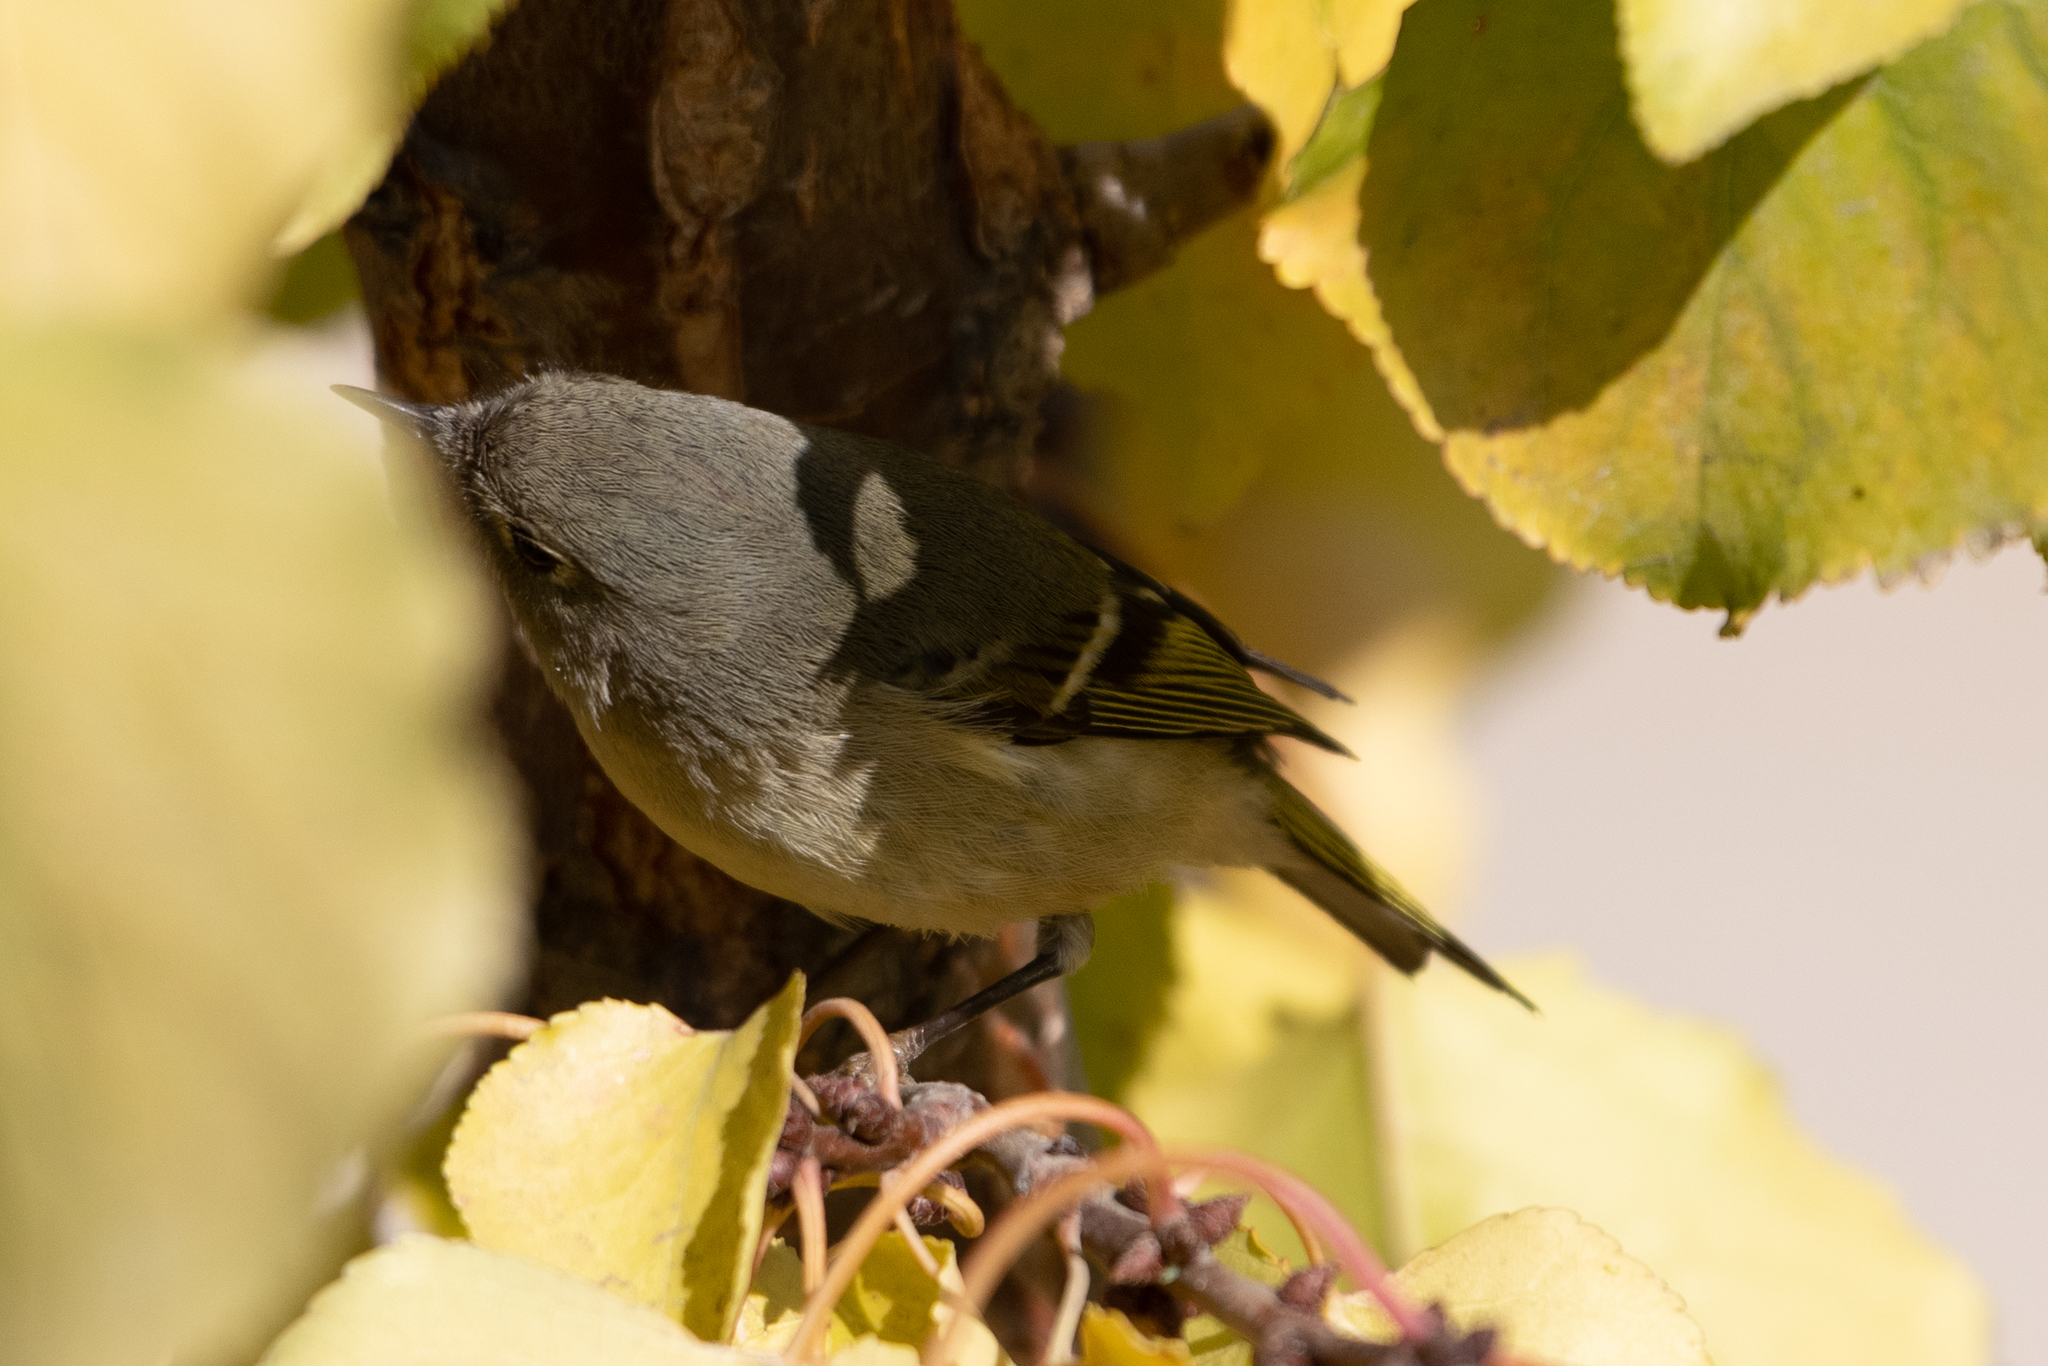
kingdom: Animalia
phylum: Chordata
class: Aves
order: Passeriformes
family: Regulidae
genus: Regulus
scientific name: Regulus calendula
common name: Ruby-crowned kinglet
